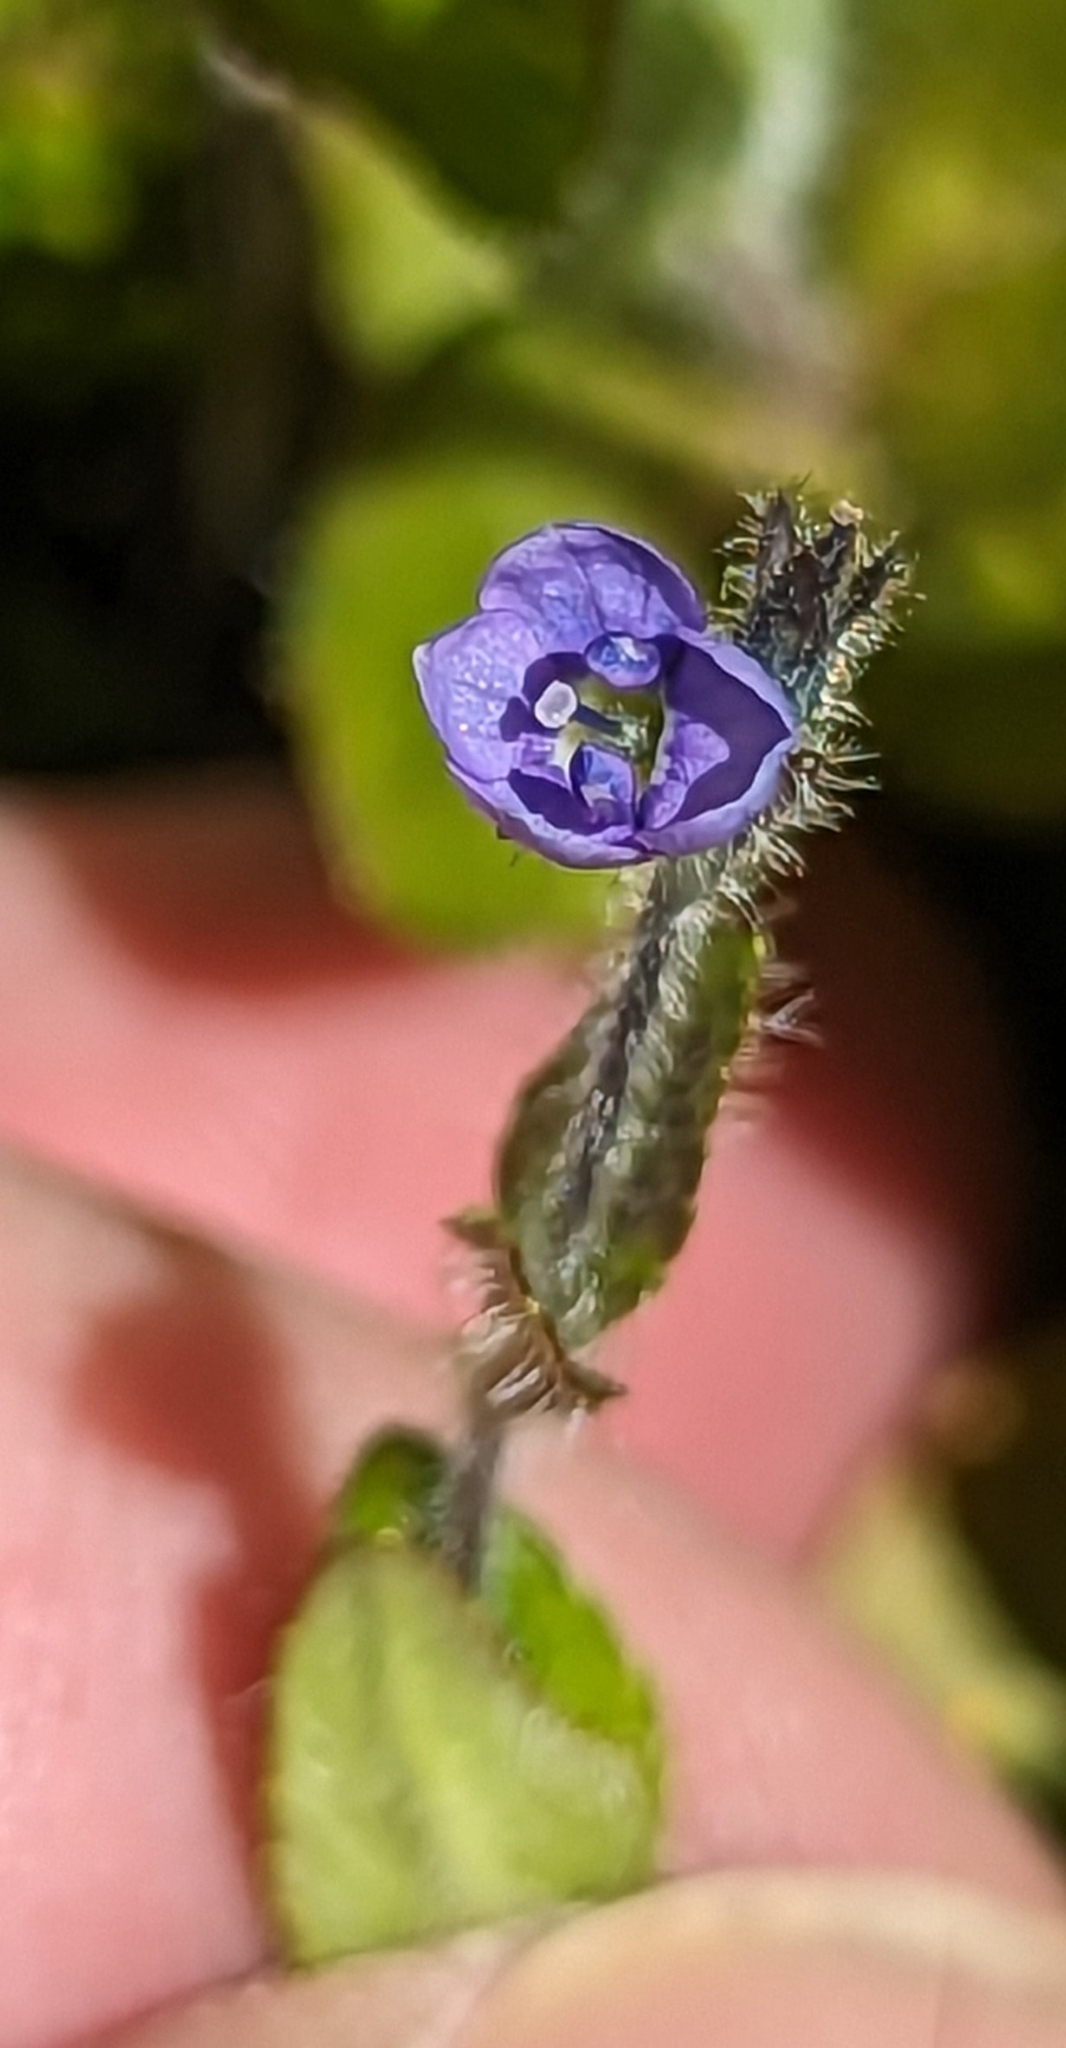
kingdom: Plantae
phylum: Tracheophyta
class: Magnoliopsida
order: Lamiales
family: Plantaginaceae
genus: Veronica
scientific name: Veronica wormskjoldii
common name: American alpine speedwell
